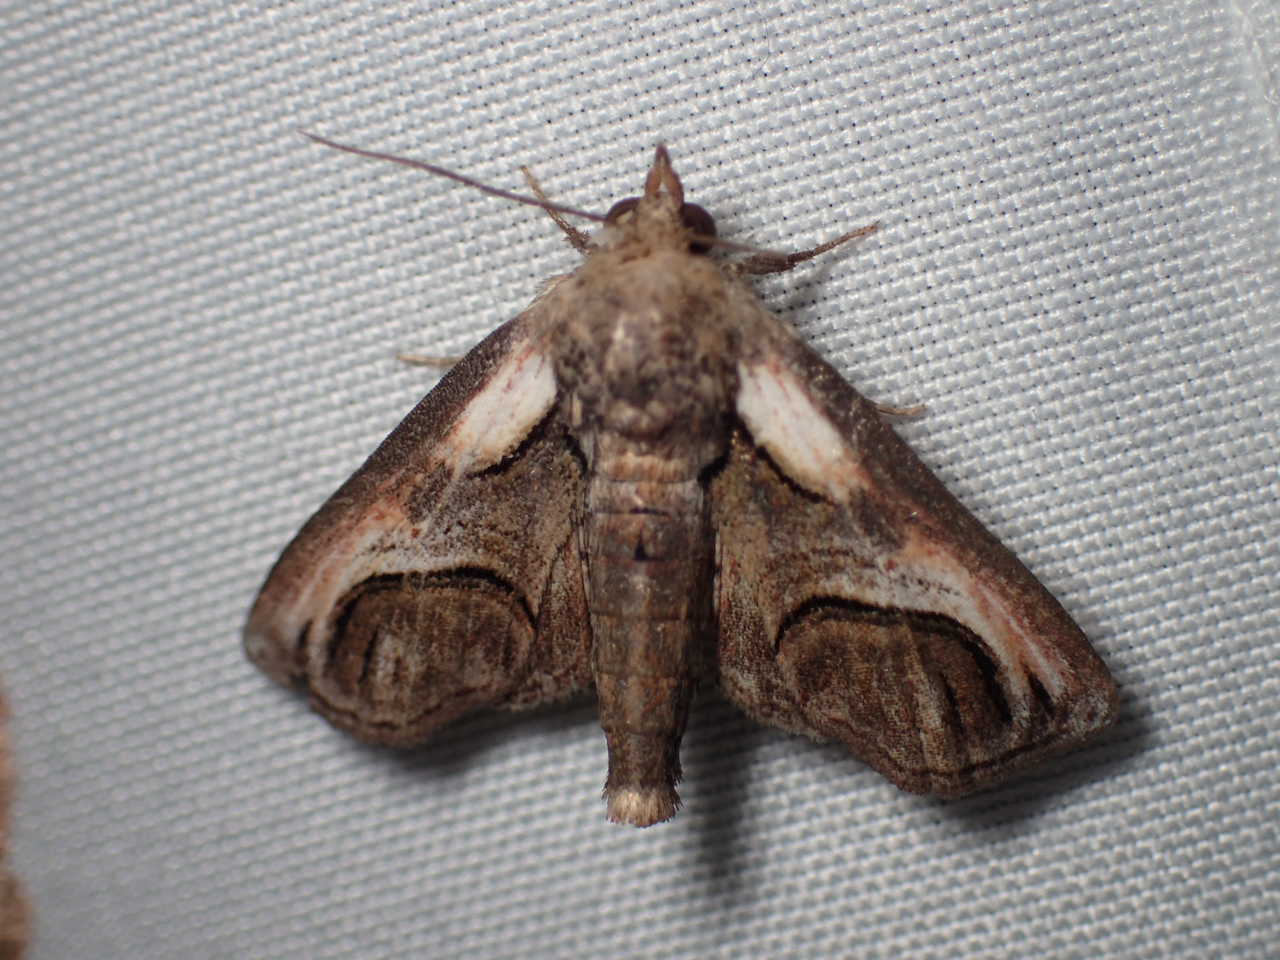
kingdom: Animalia
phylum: Arthropoda
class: Insecta
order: Lepidoptera
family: Euteliidae
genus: Paectes
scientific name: Paectes oculatrix
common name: Eyed paectes moth
